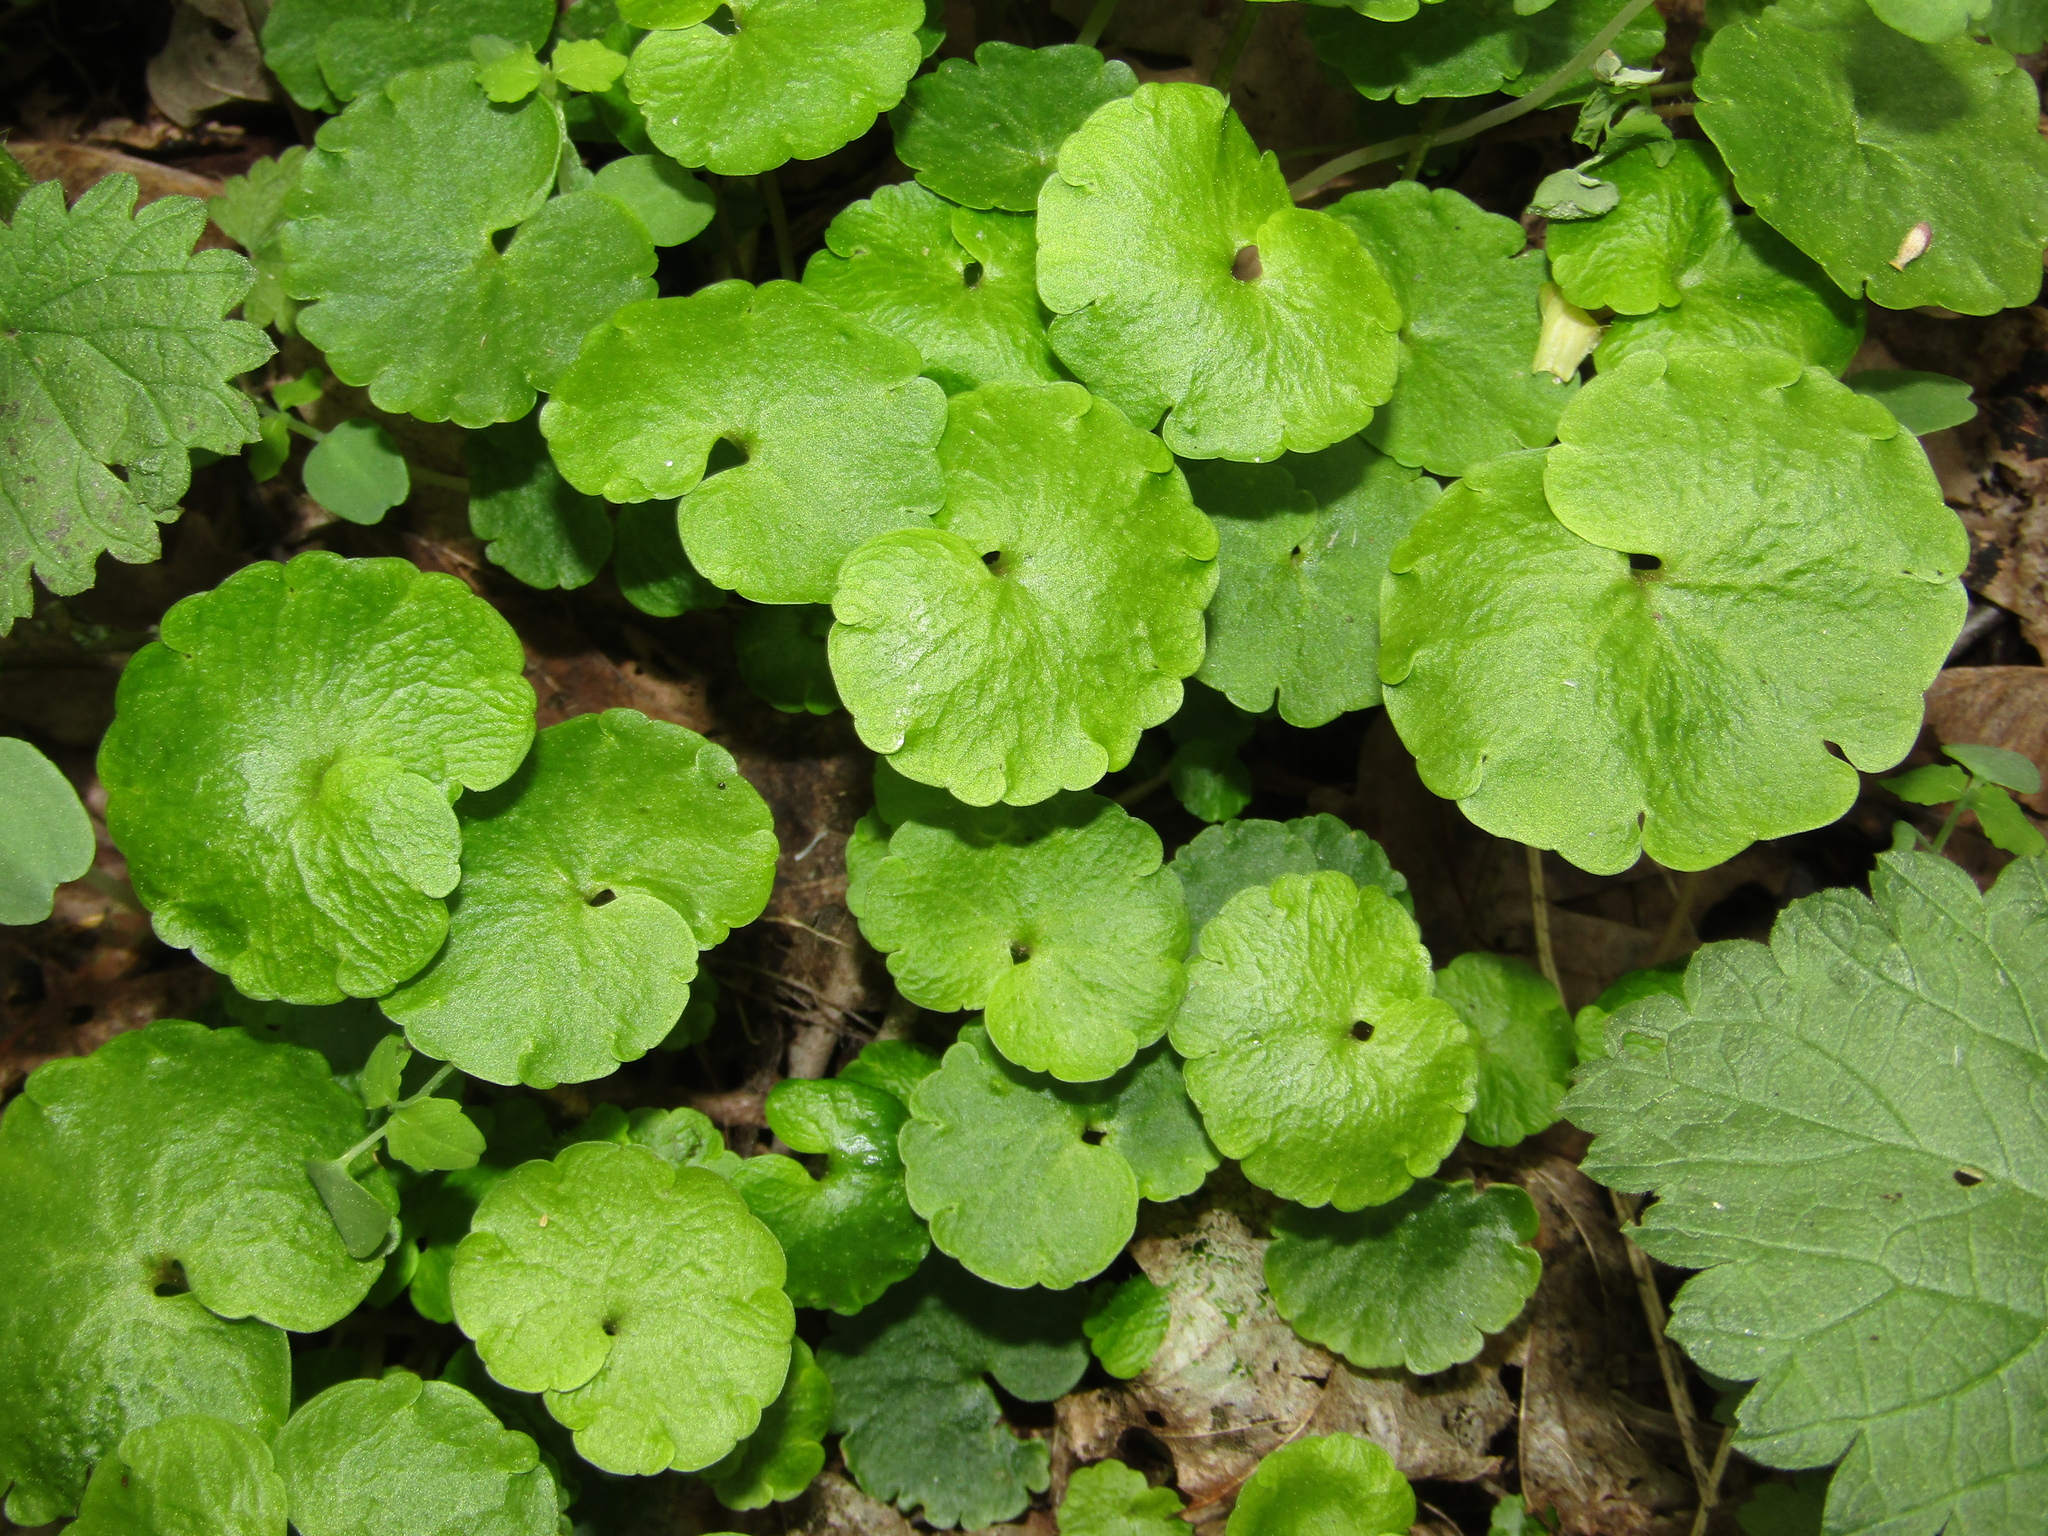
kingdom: Plantae
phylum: Tracheophyta
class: Magnoliopsida
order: Saxifragales
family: Saxifragaceae
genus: Chrysosplenium
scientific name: Chrysosplenium alternifolium
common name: Alternate-leaved golden-saxifrage
